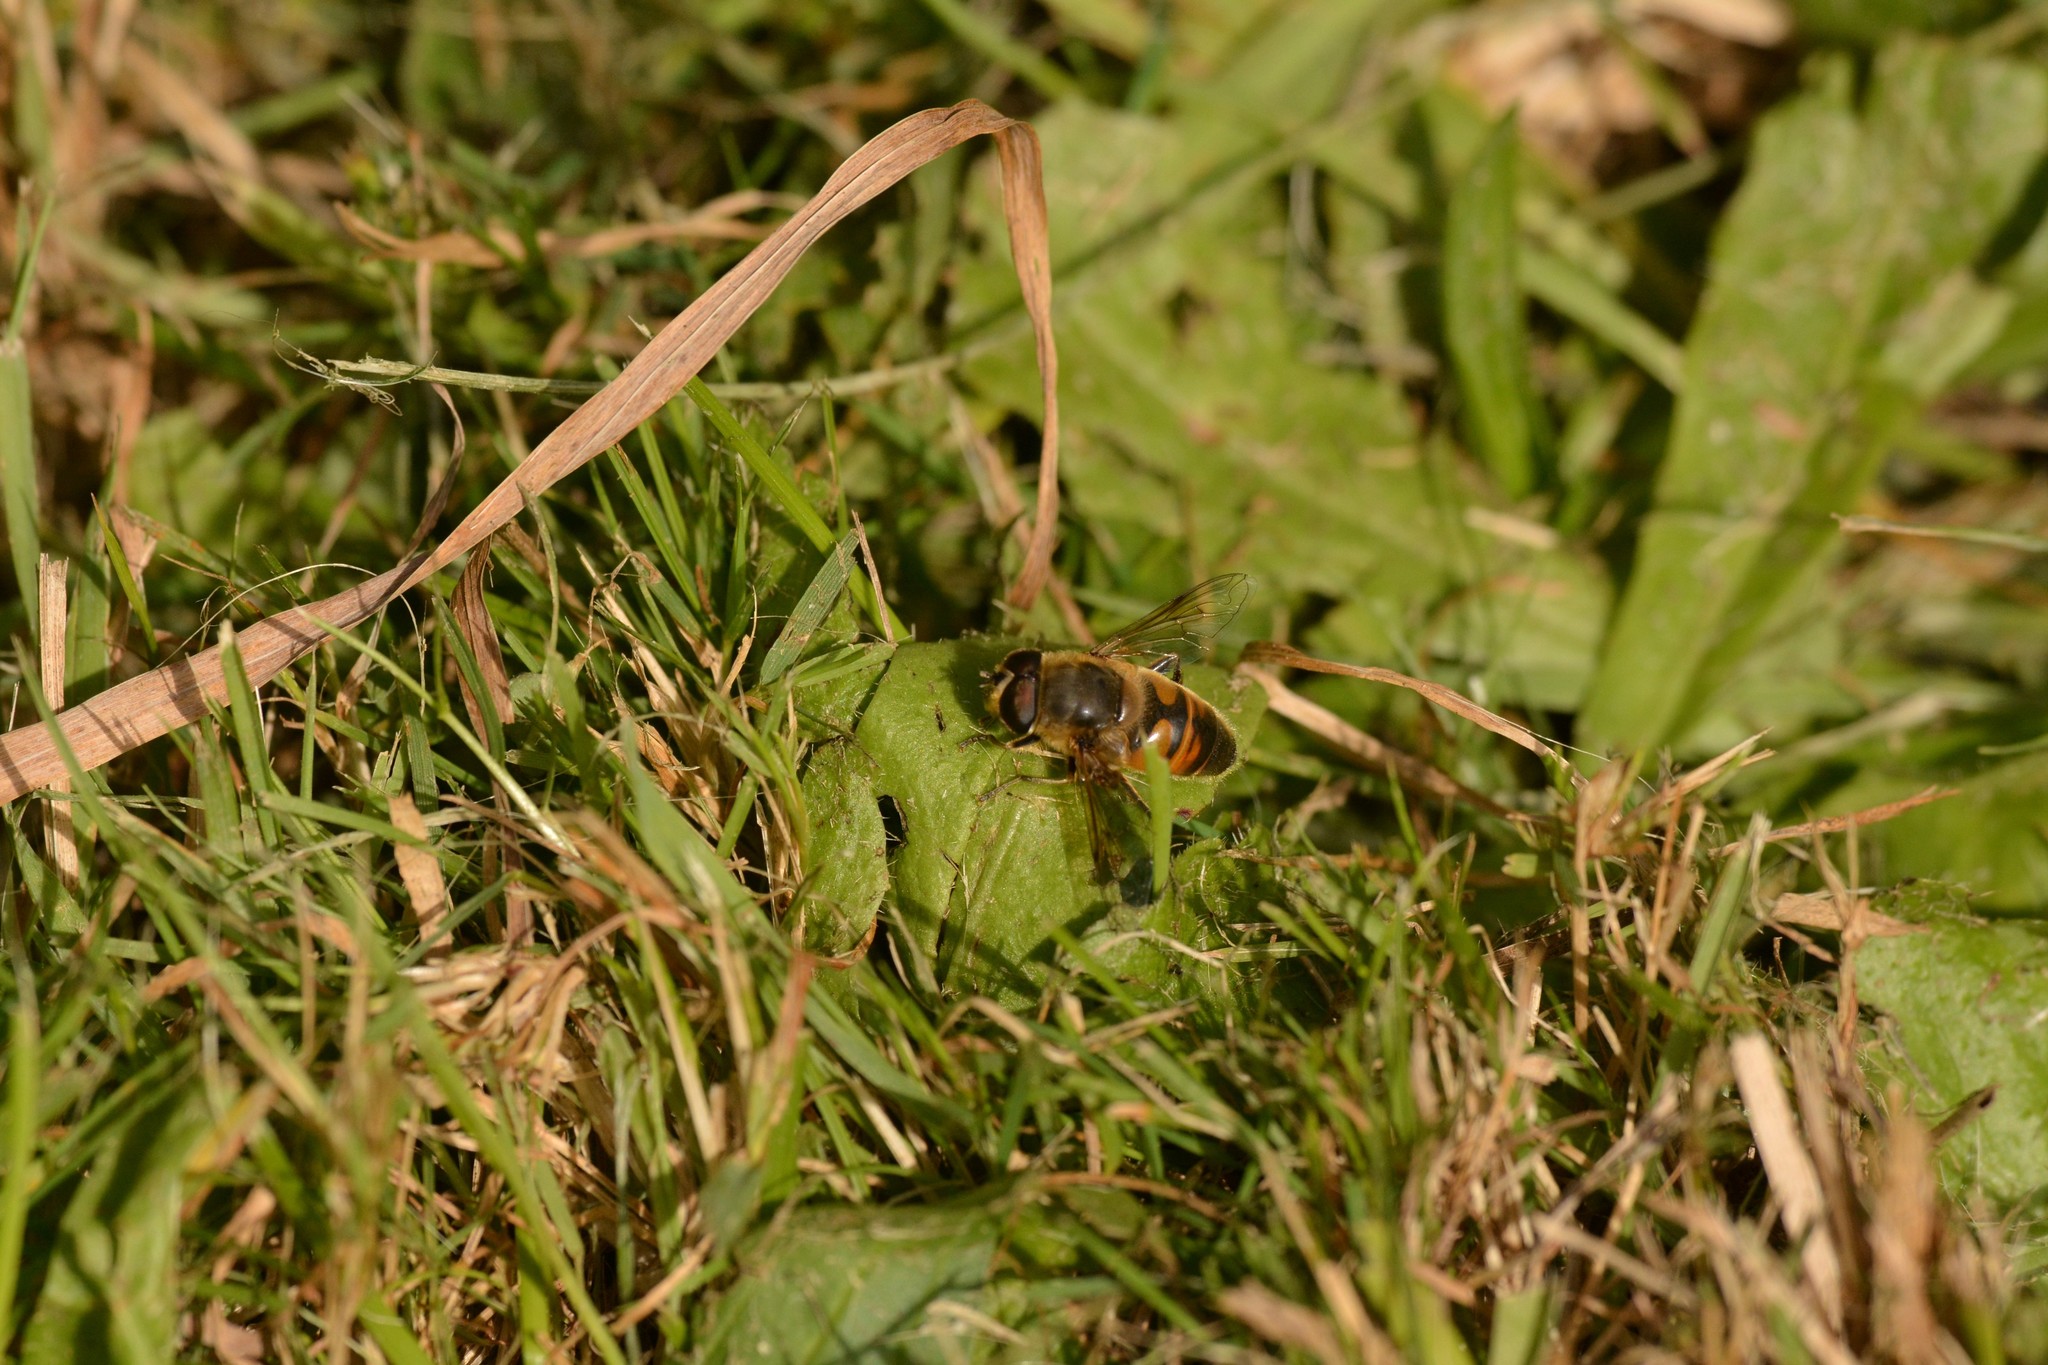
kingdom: Animalia
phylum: Arthropoda
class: Insecta
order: Diptera
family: Syrphidae
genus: Eristalis
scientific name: Eristalis tenax
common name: Drone fly
